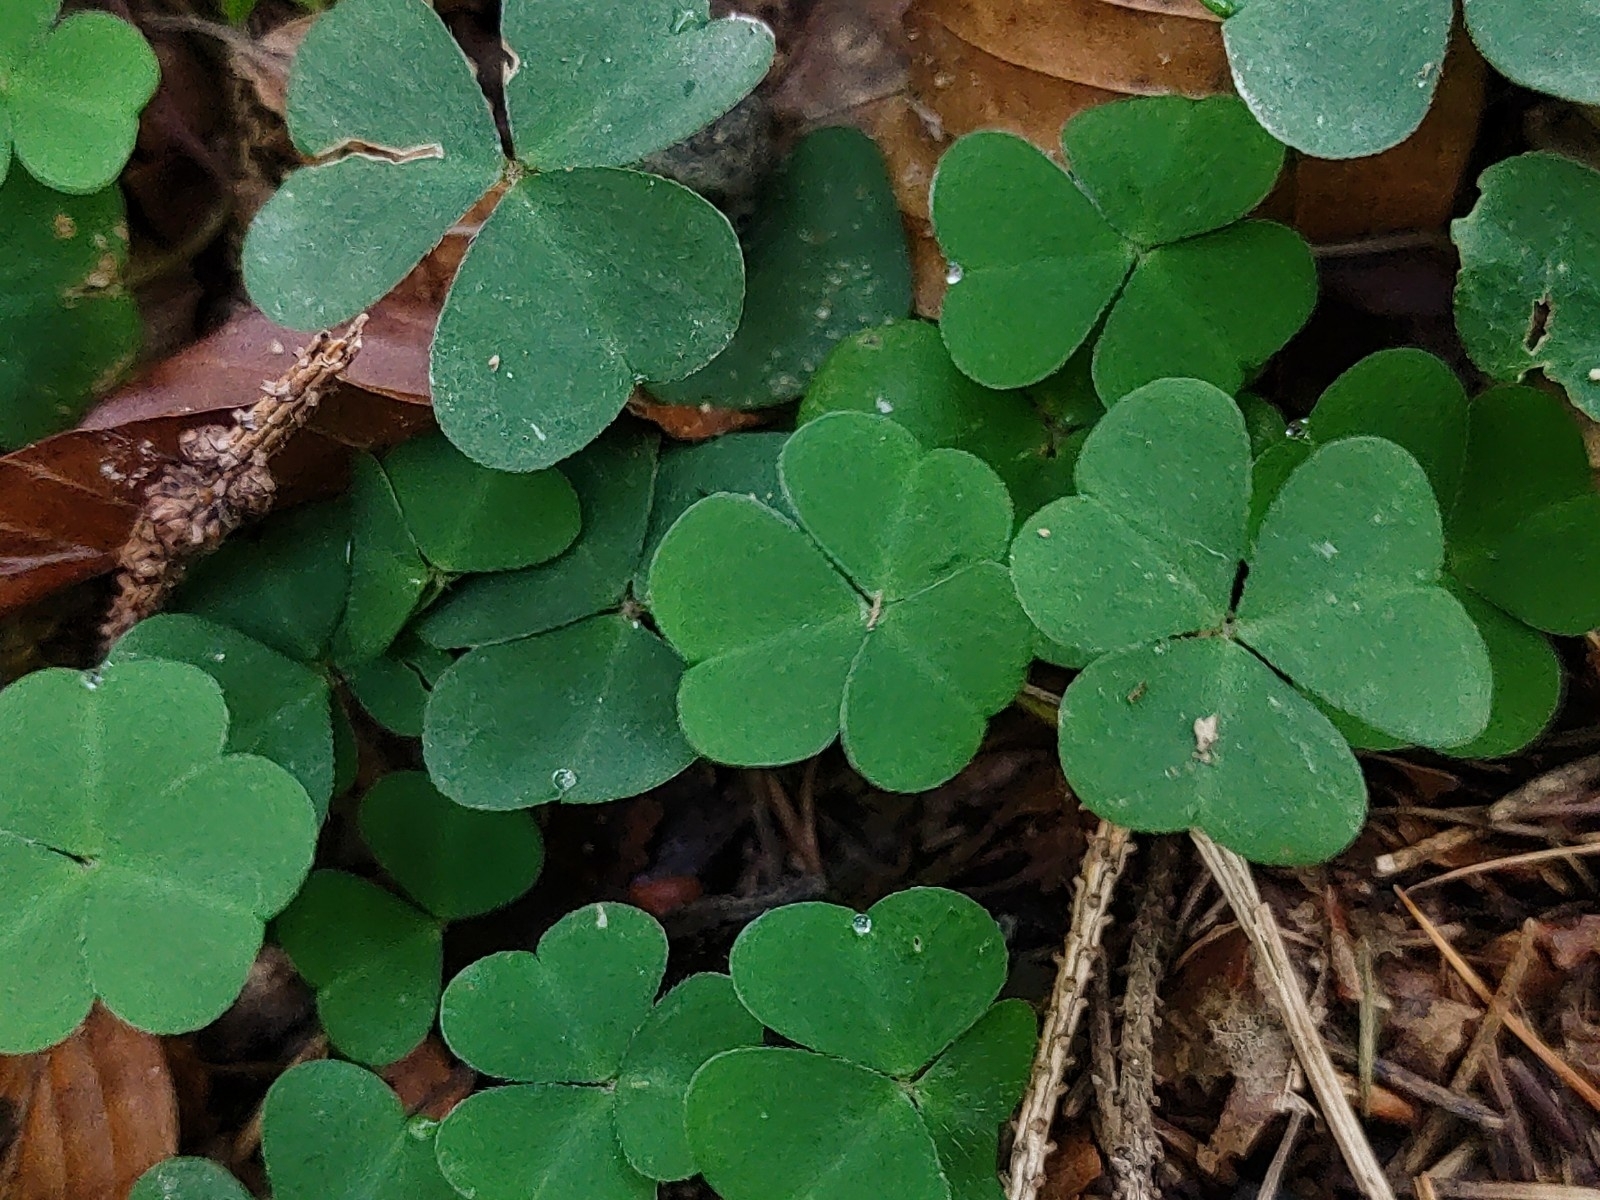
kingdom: Plantae
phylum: Tracheophyta
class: Magnoliopsida
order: Oxalidales
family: Oxalidaceae
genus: Oxalis
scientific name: Oxalis acetosella
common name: Wood-sorrel
